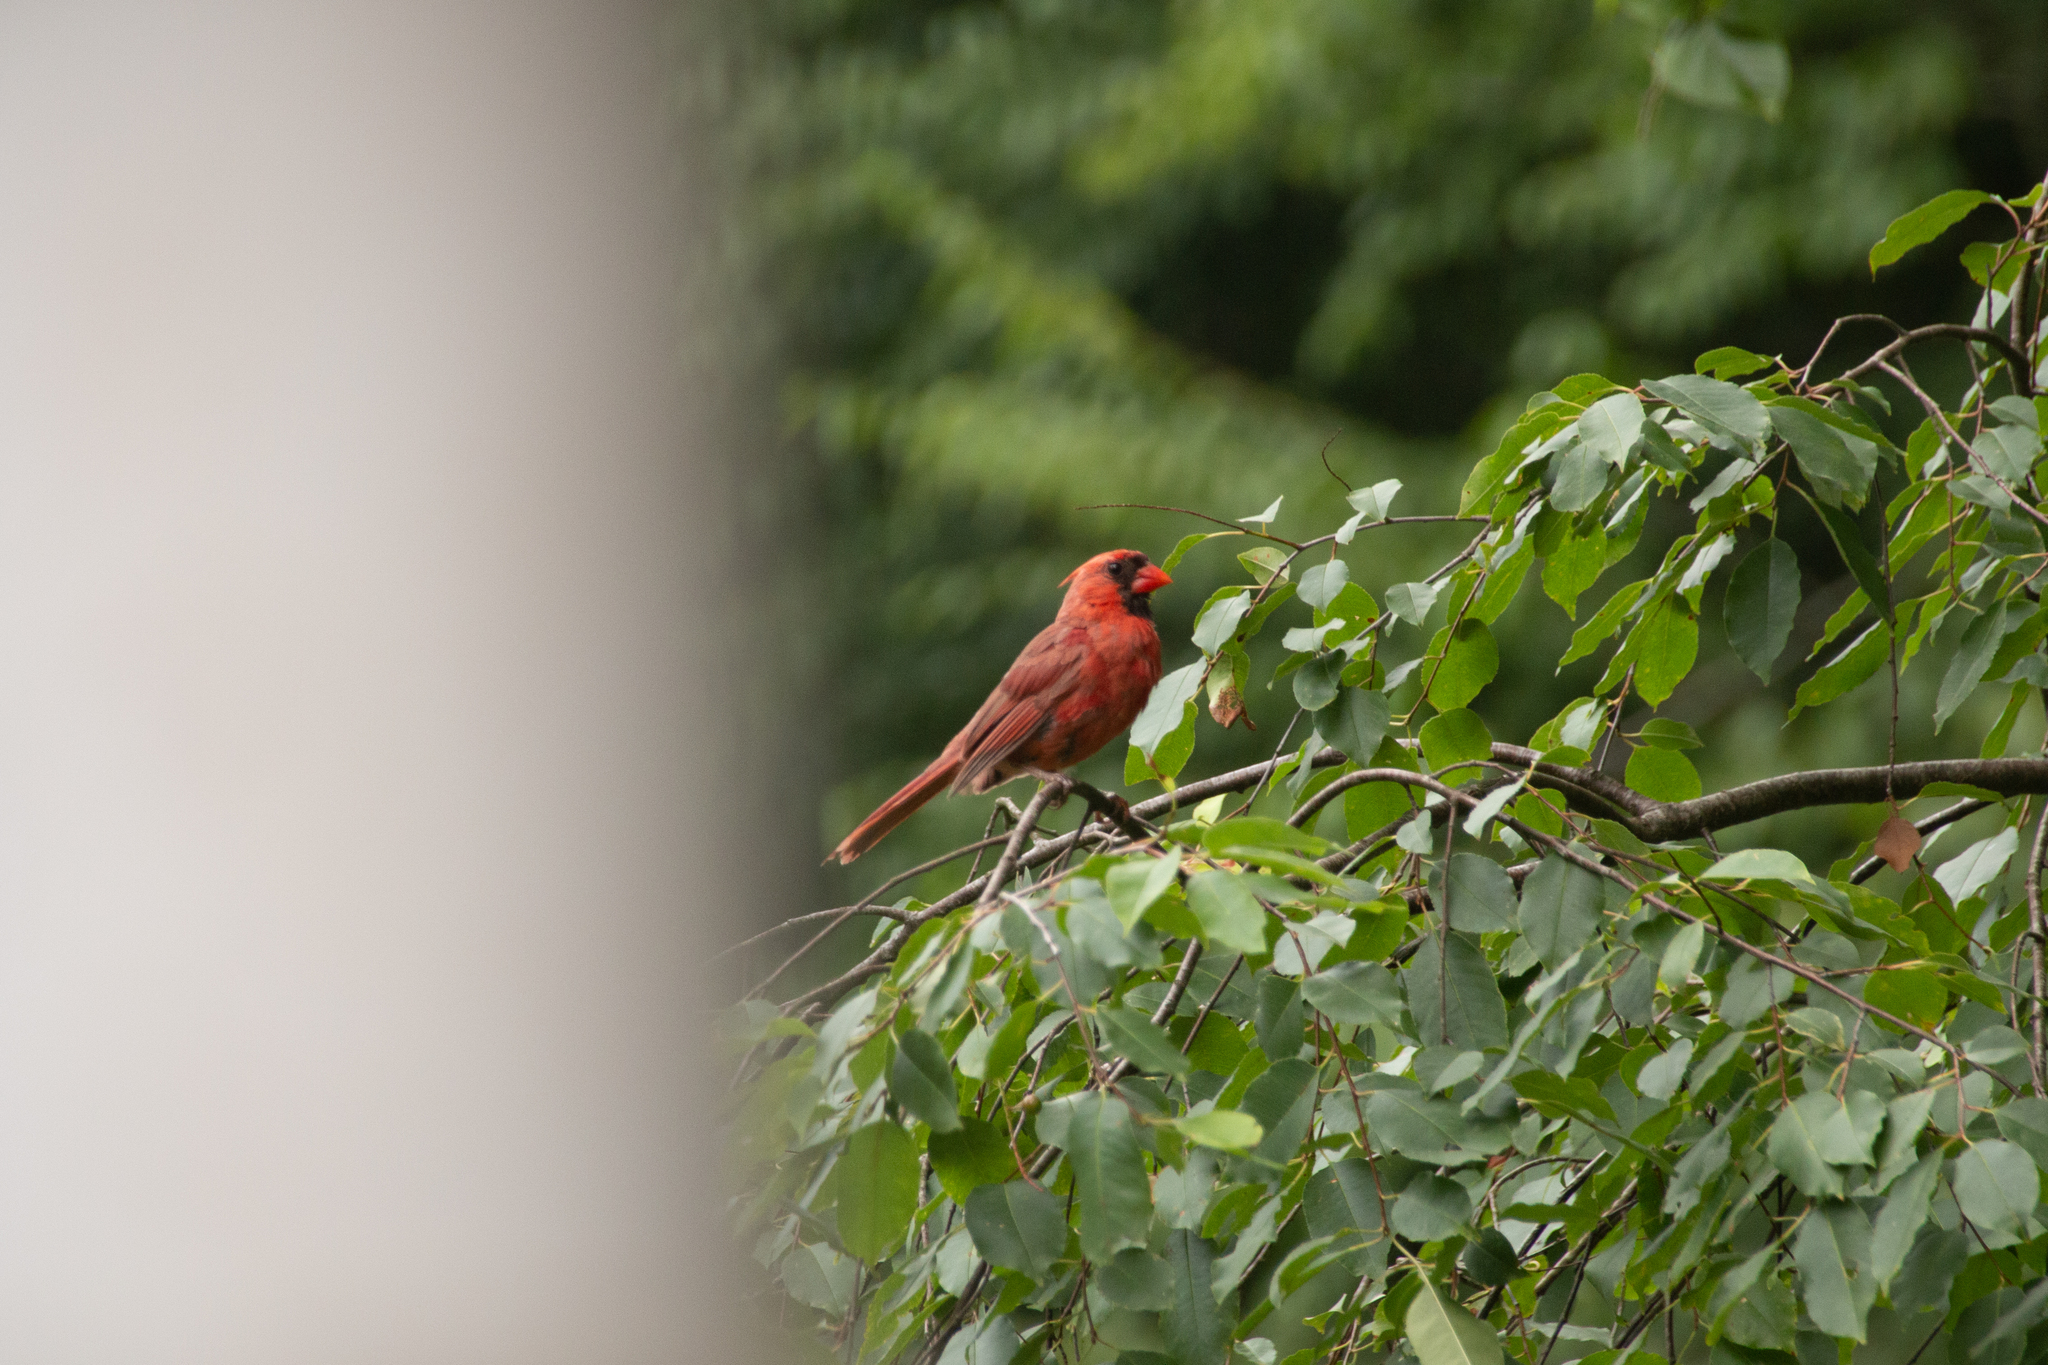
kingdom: Animalia
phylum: Chordata
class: Aves
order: Passeriformes
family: Cardinalidae
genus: Cardinalis
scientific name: Cardinalis cardinalis
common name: Northern cardinal
